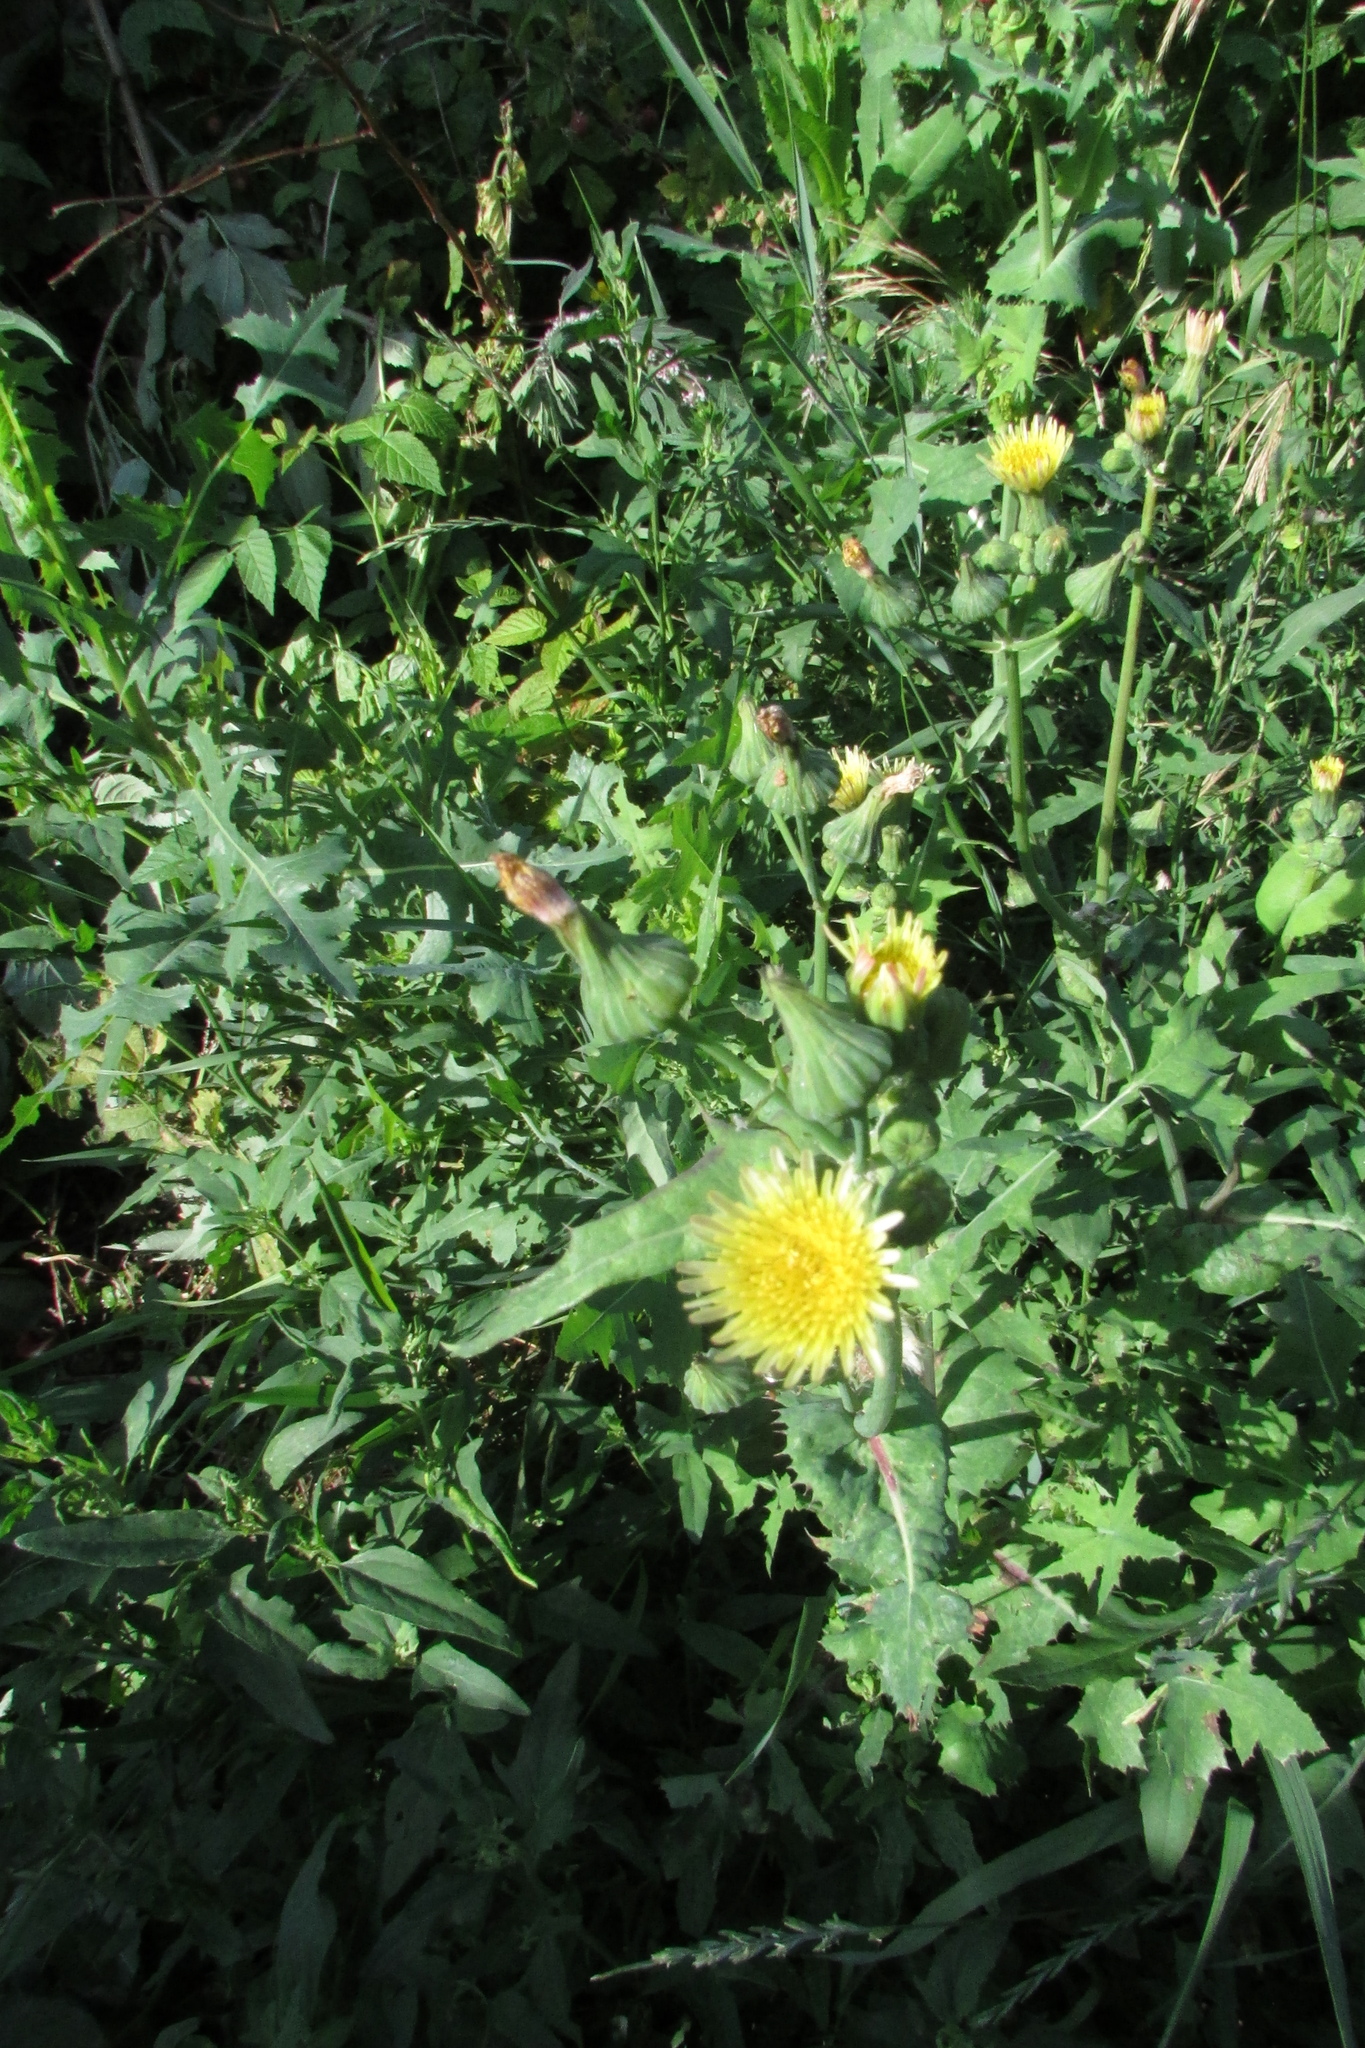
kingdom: Plantae
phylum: Tracheophyta
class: Magnoliopsida
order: Asterales
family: Asteraceae
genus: Sonchus
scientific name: Sonchus oleraceus
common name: Common sowthistle
